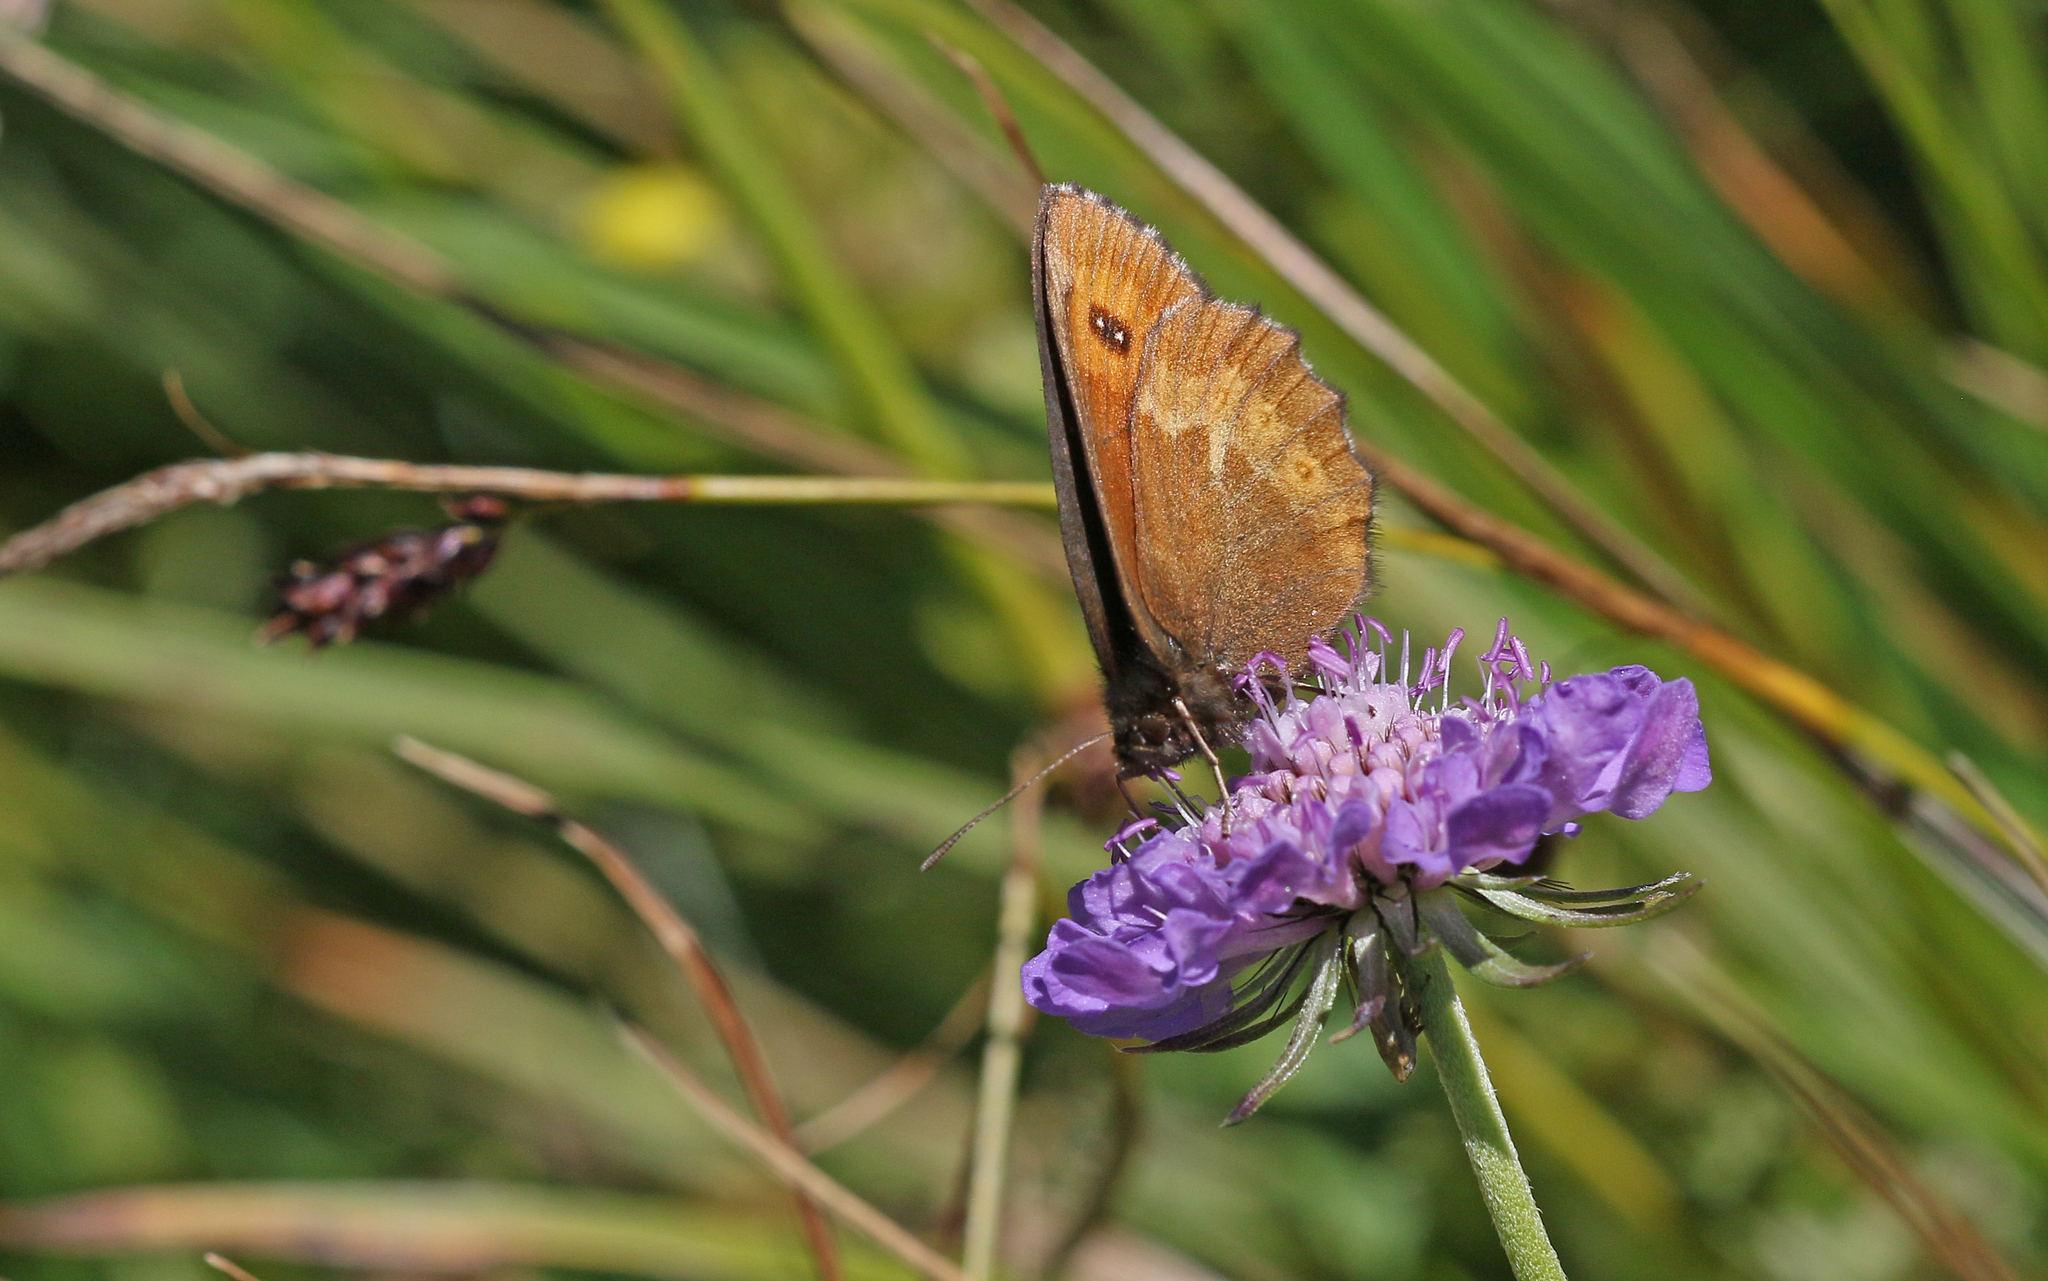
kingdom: Animalia
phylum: Arthropoda
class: Insecta
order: Lepidoptera
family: Nymphalidae
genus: Erebia
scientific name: Erebia euryale
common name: Large ringlet
